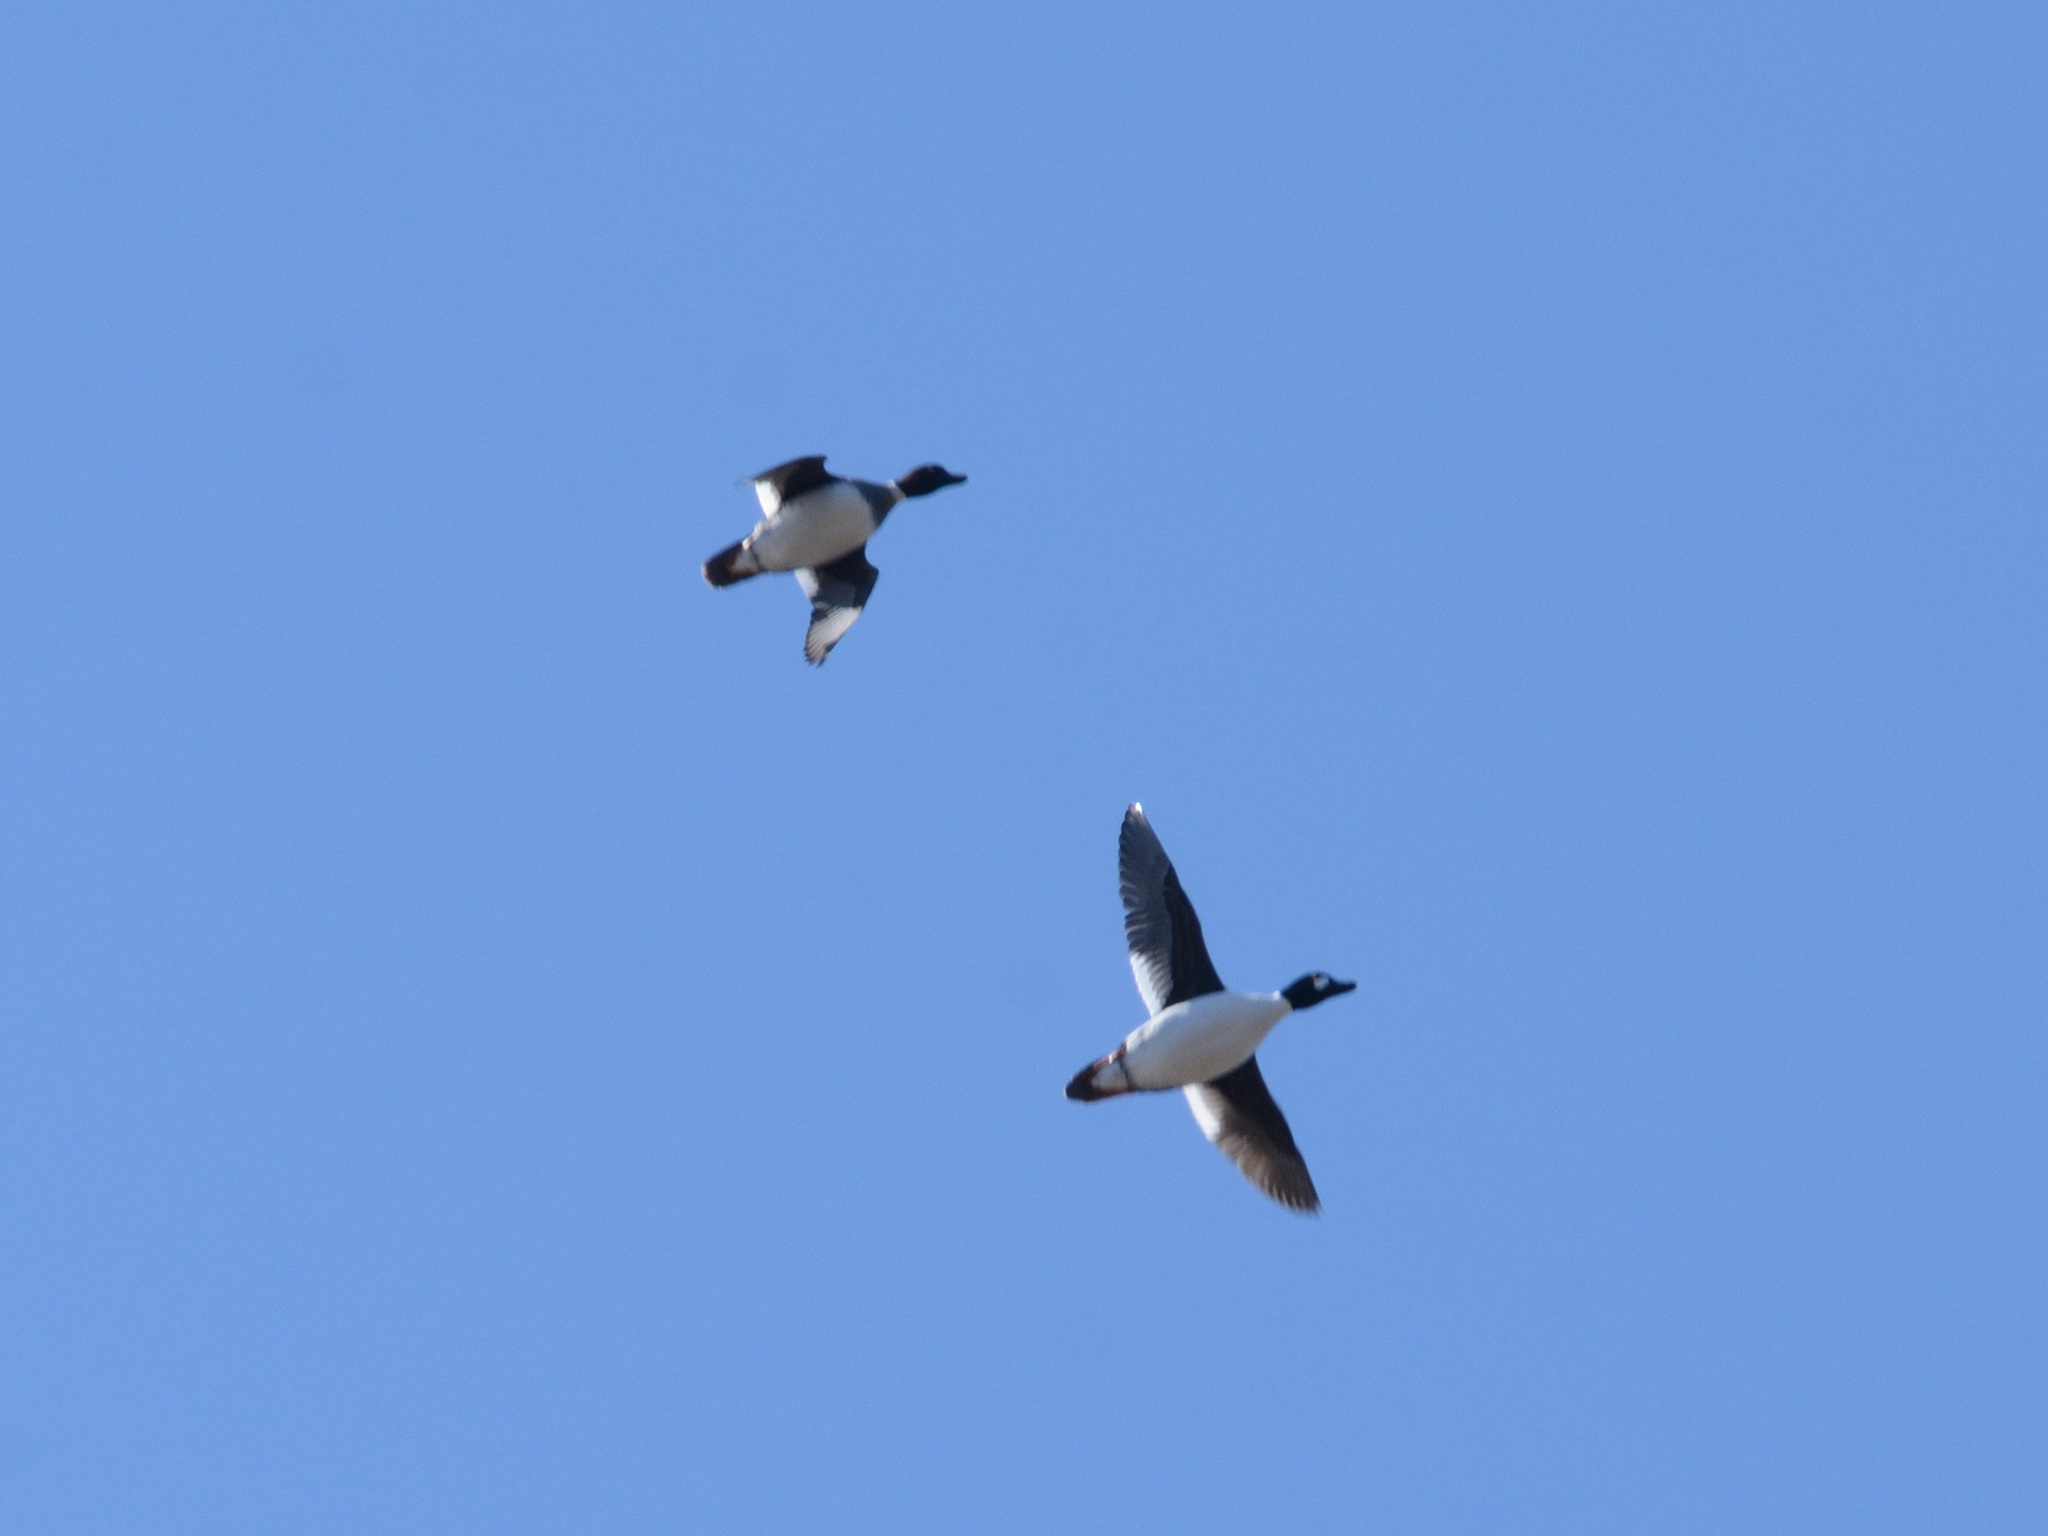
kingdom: Animalia
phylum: Chordata
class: Aves
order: Anseriformes
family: Anatidae
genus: Bucephala
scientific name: Bucephala clangula
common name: Common goldeneye
